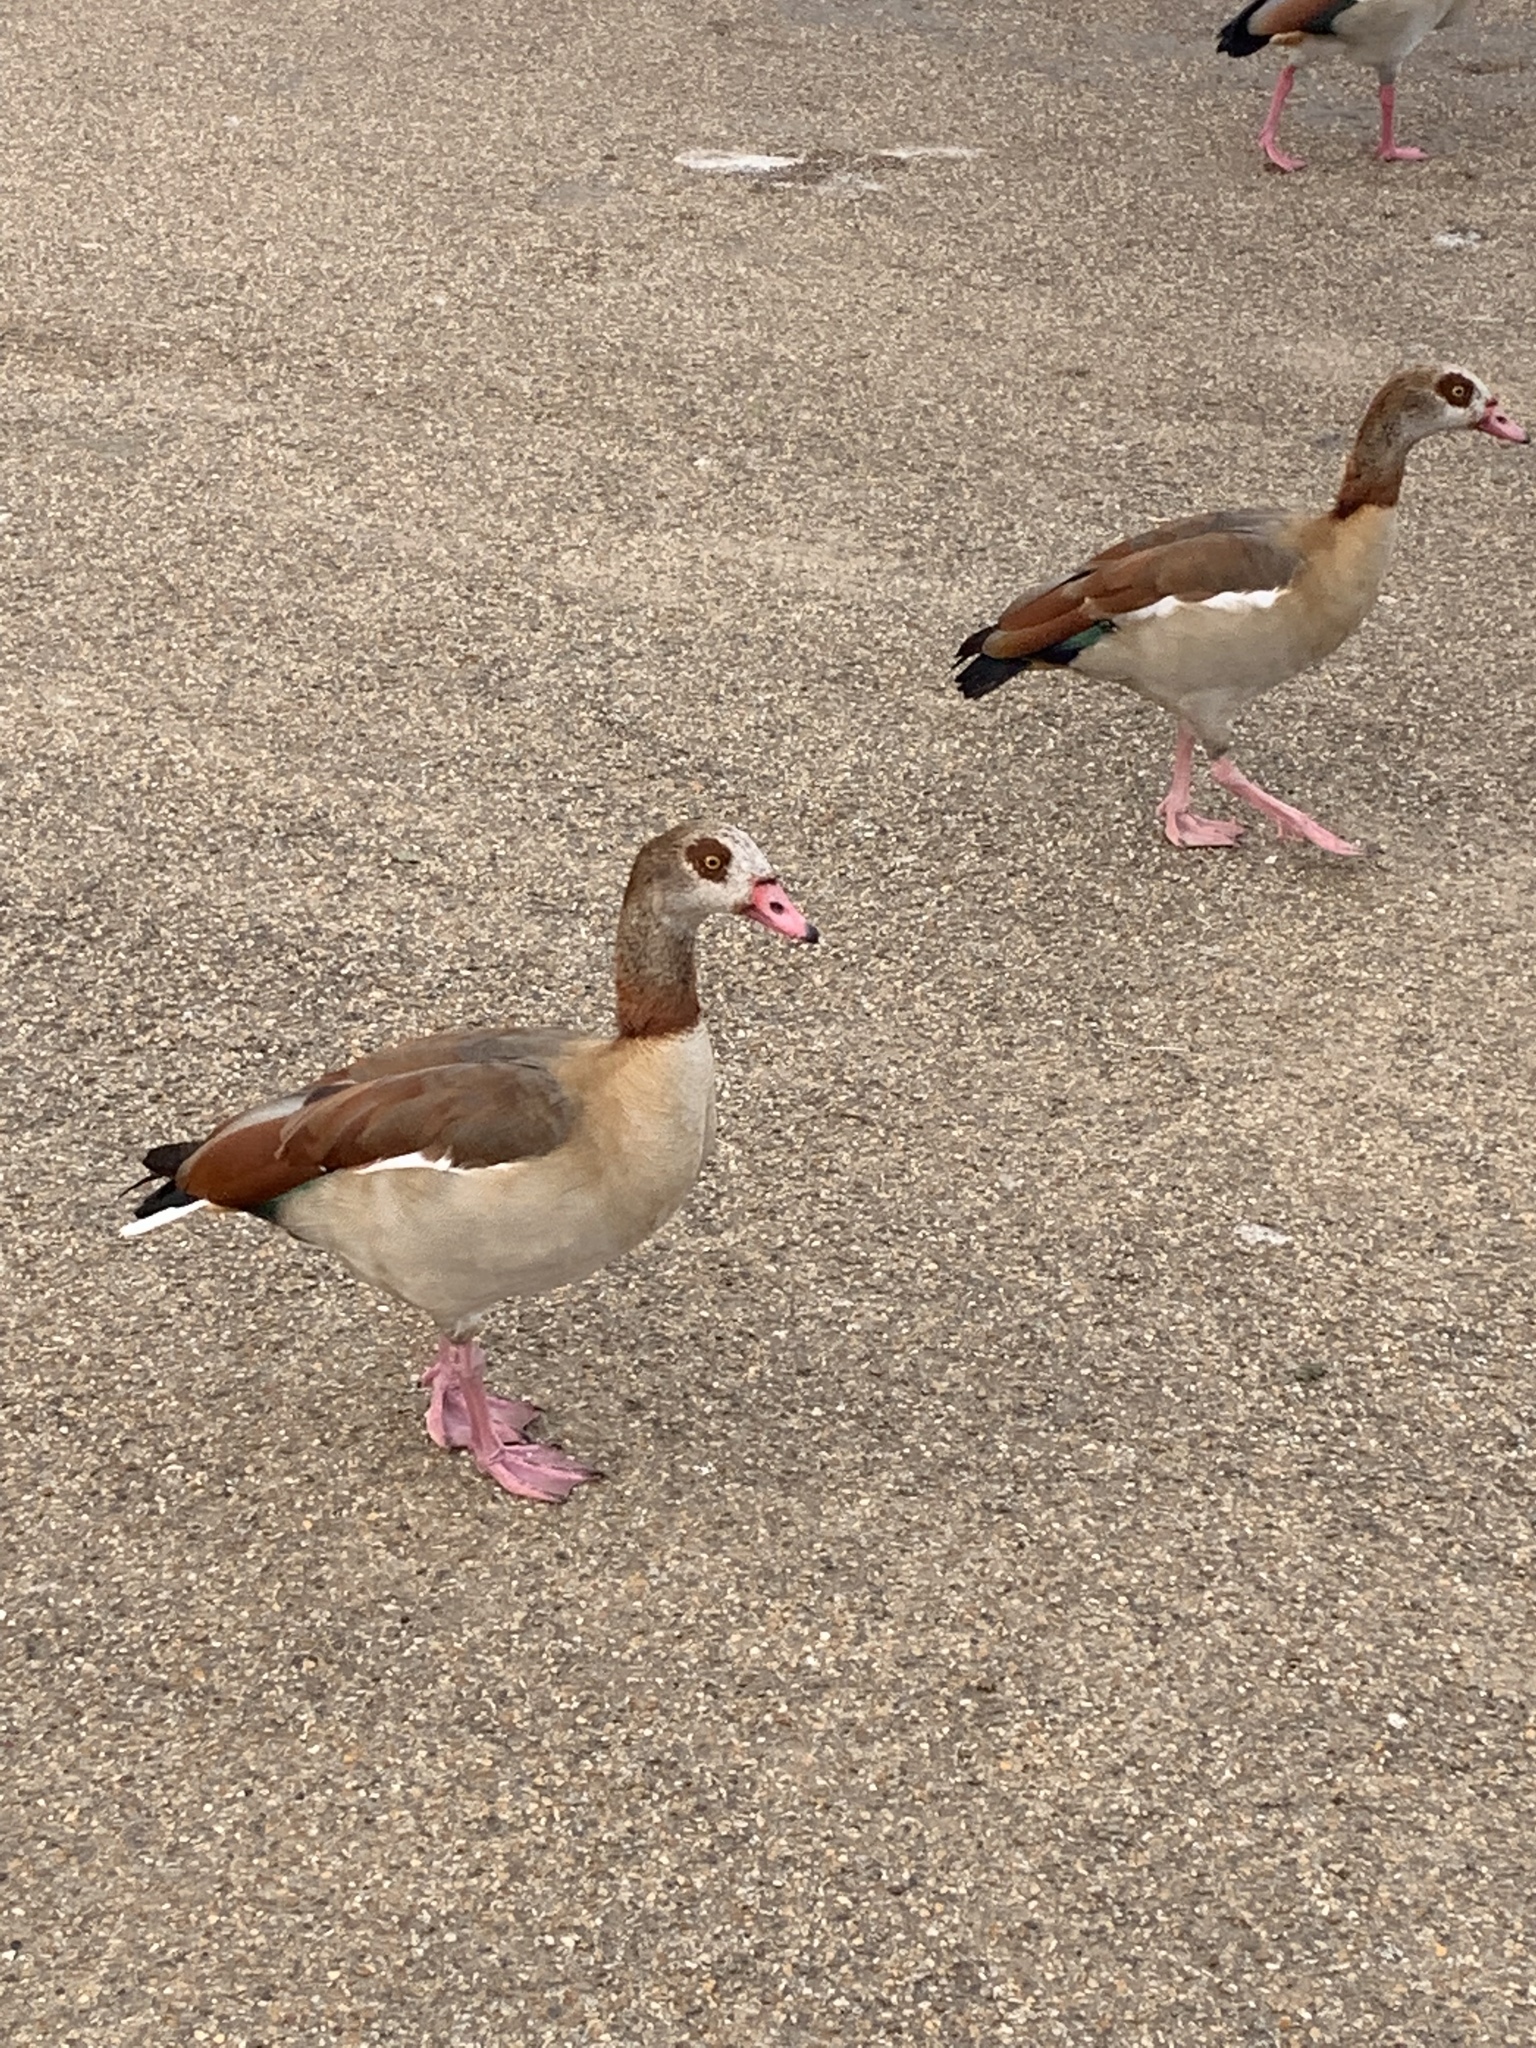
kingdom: Animalia
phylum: Chordata
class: Aves
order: Anseriformes
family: Anatidae
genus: Alopochen
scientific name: Alopochen aegyptiaca
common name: Egyptian goose
